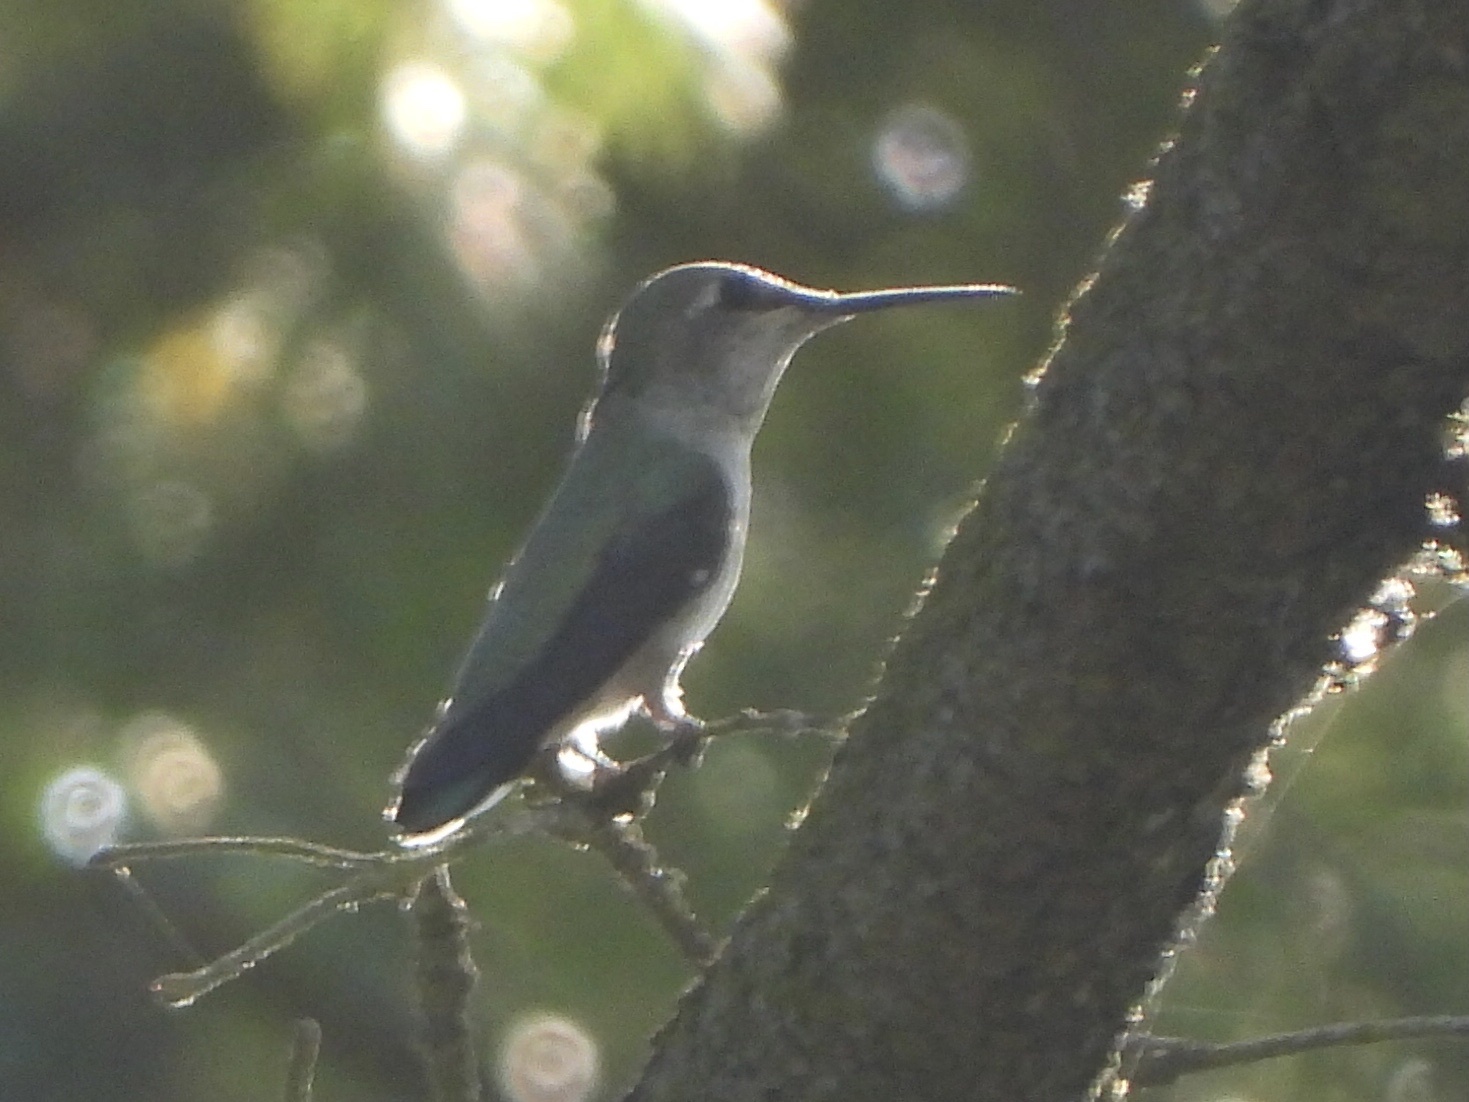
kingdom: Animalia
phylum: Chordata
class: Aves
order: Apodiformes
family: Trochilidae
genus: Calypte
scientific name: Calypte anna
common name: Anna's hummingbird
